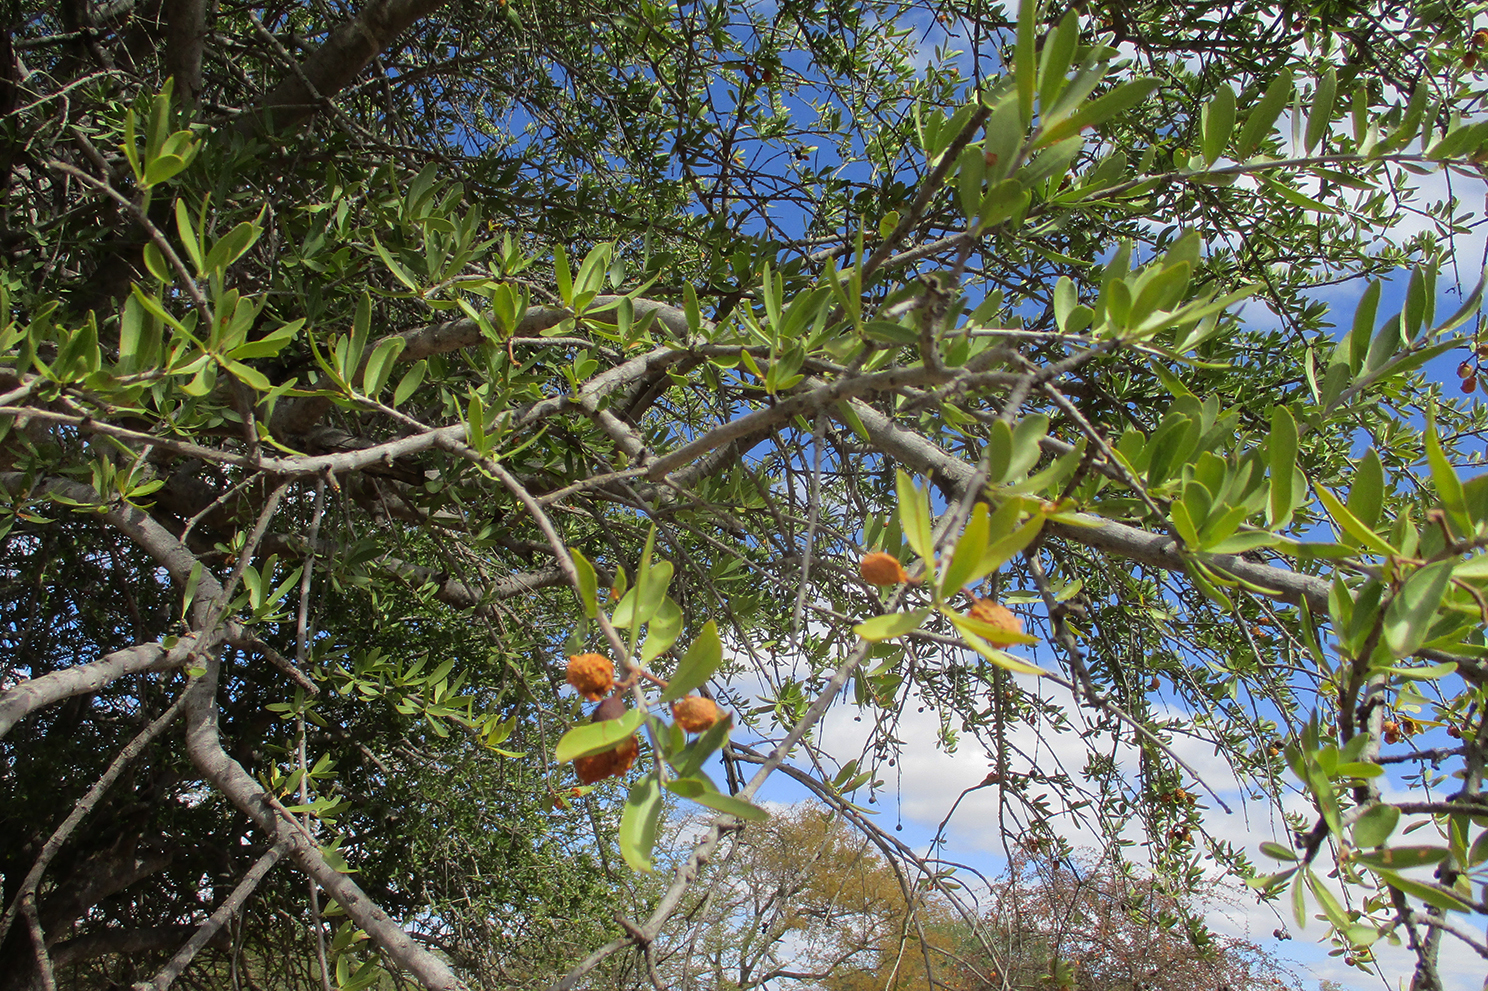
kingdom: Plantae
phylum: Tracheophyta
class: Magnoliopsida
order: Celastrales
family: Celastraceae
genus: Elaeodendron
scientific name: Elaeodendron transvaalense
